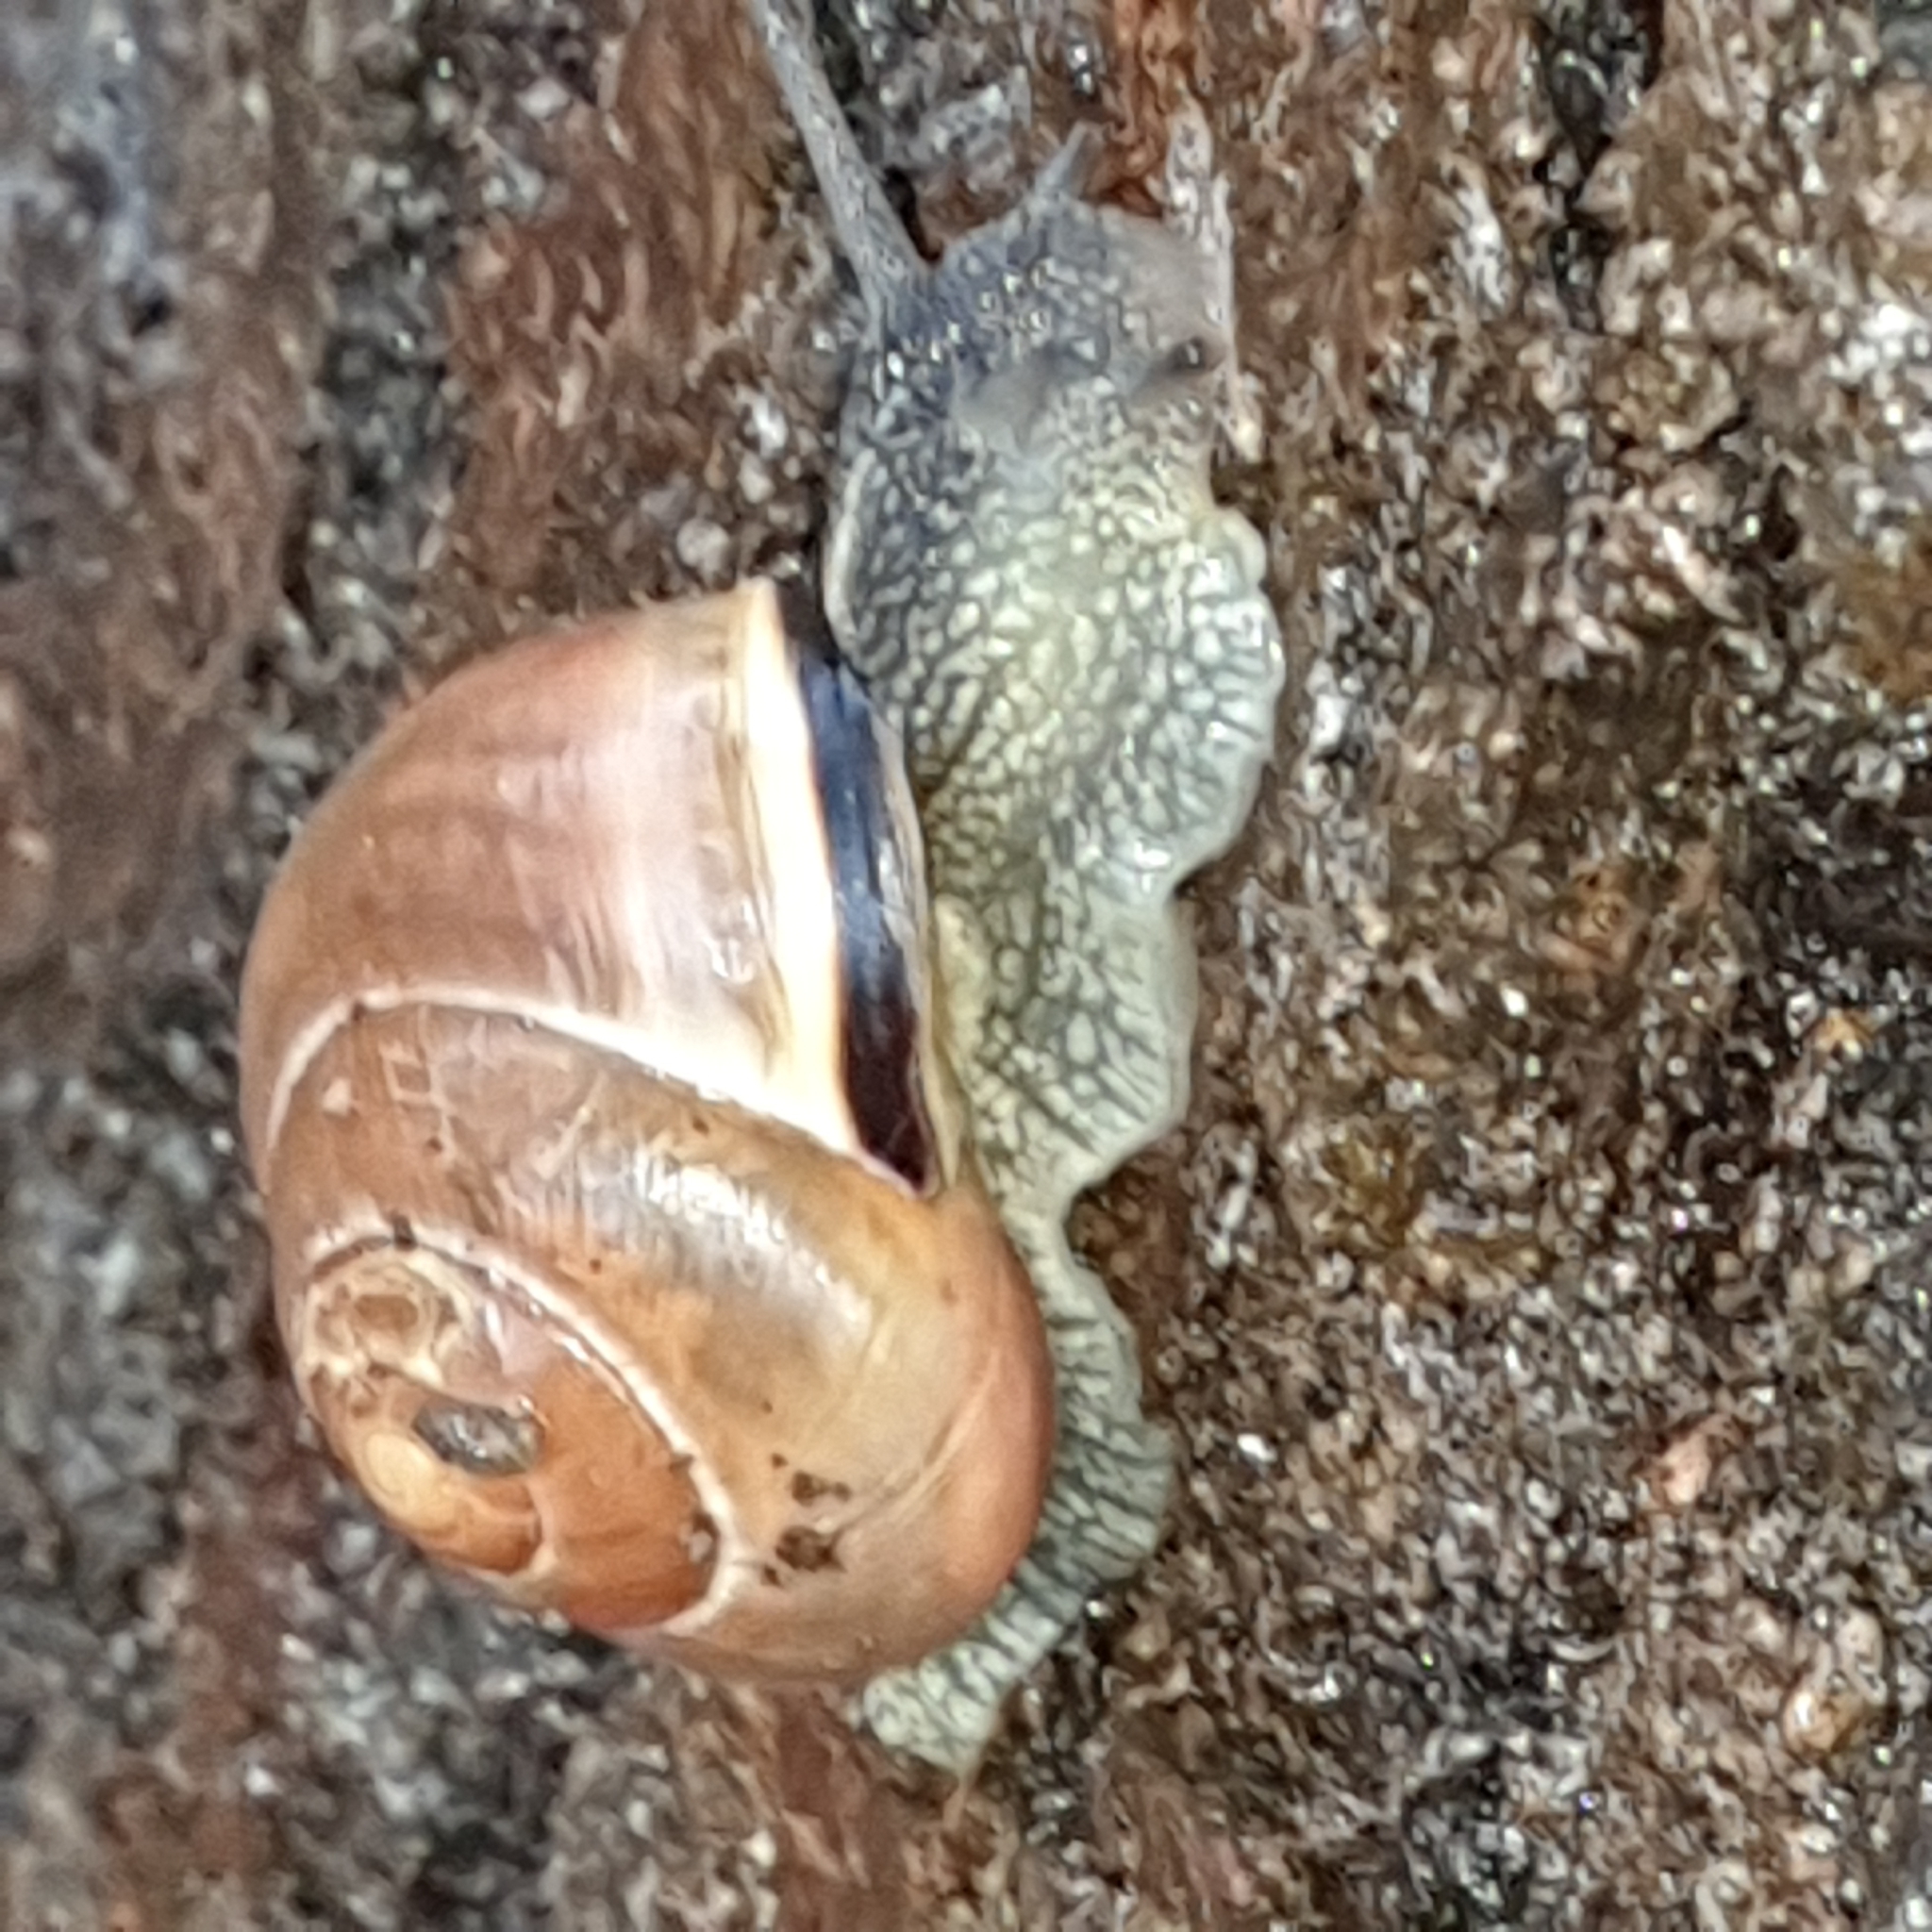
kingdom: Animalia
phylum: Mollusca
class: Gastropoda
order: Stylommatophora
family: Helicidae
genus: Cepaea
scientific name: Cepaea nemoralis
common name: Grovesnail
